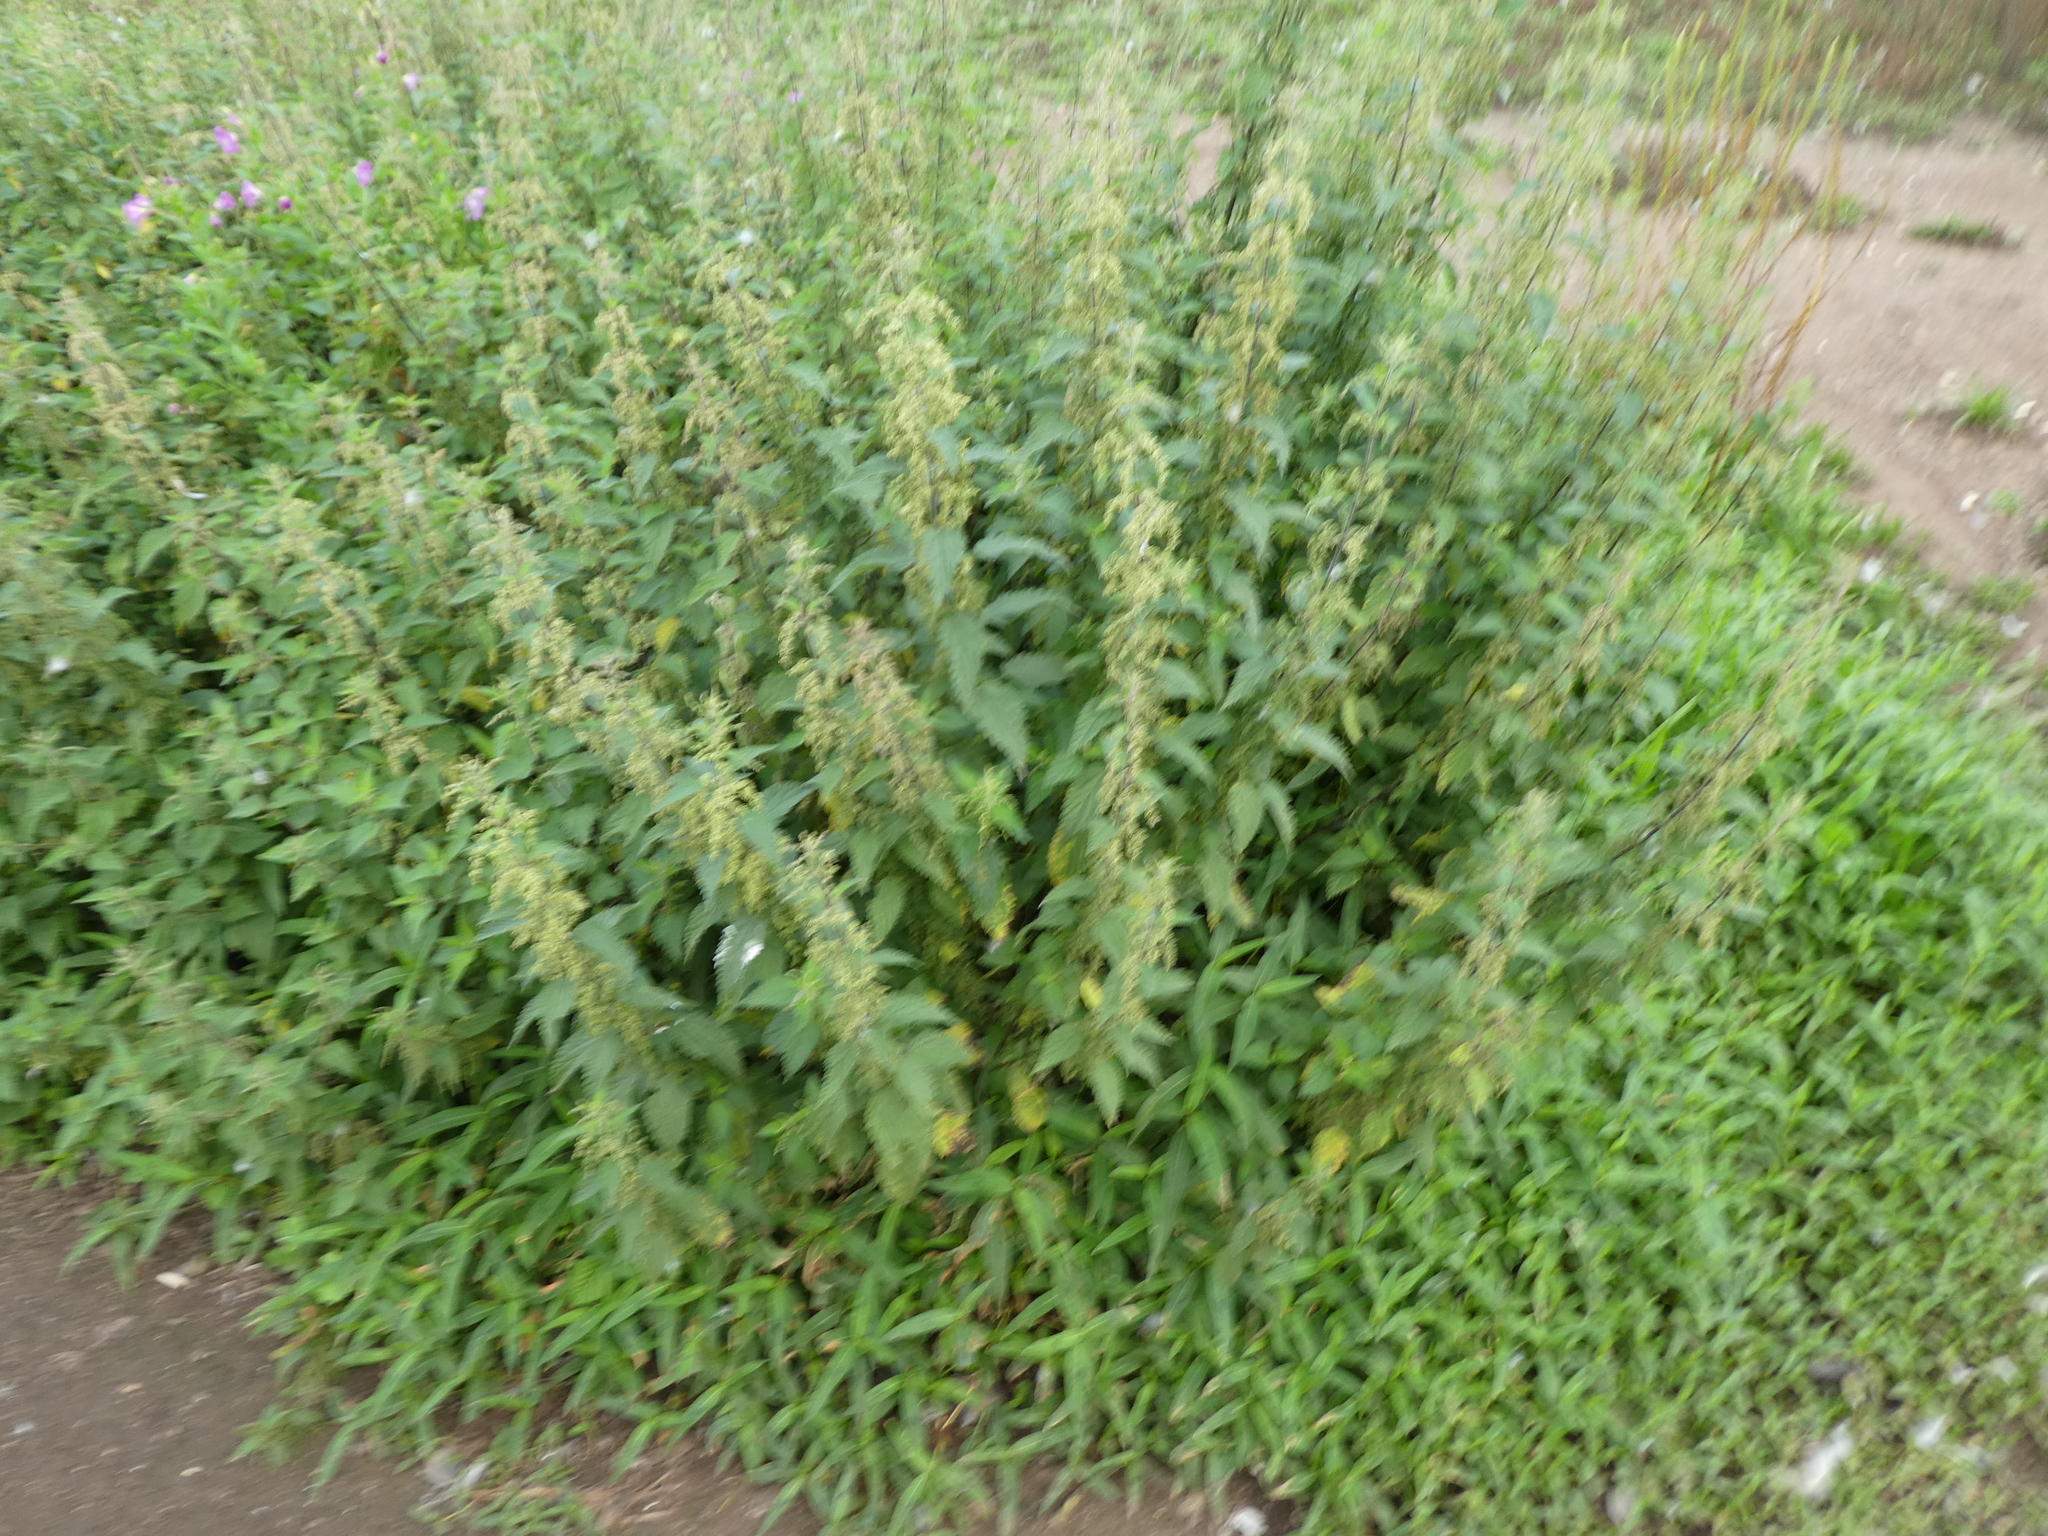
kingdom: Plantae
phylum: Tracheophyta
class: Magnoliopsida
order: Rosales
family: Urticaceae
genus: Urtica
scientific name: Urtica dioica
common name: Common nettle
